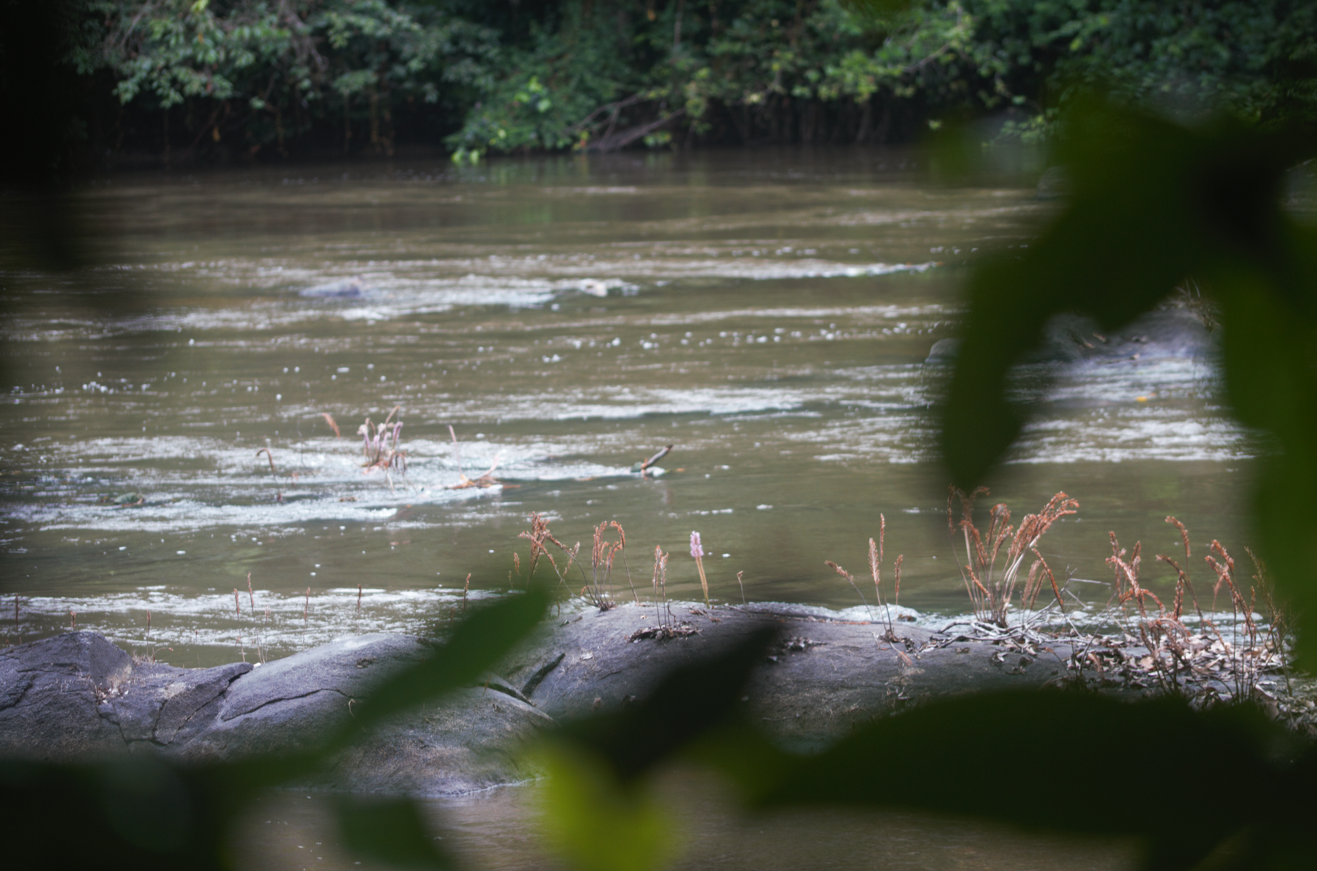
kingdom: Plantae
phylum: Tracheophyta
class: Magnoliopsida
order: Malpighiales
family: Podostemaceae
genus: Mourera
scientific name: Mourera fluviatilis
